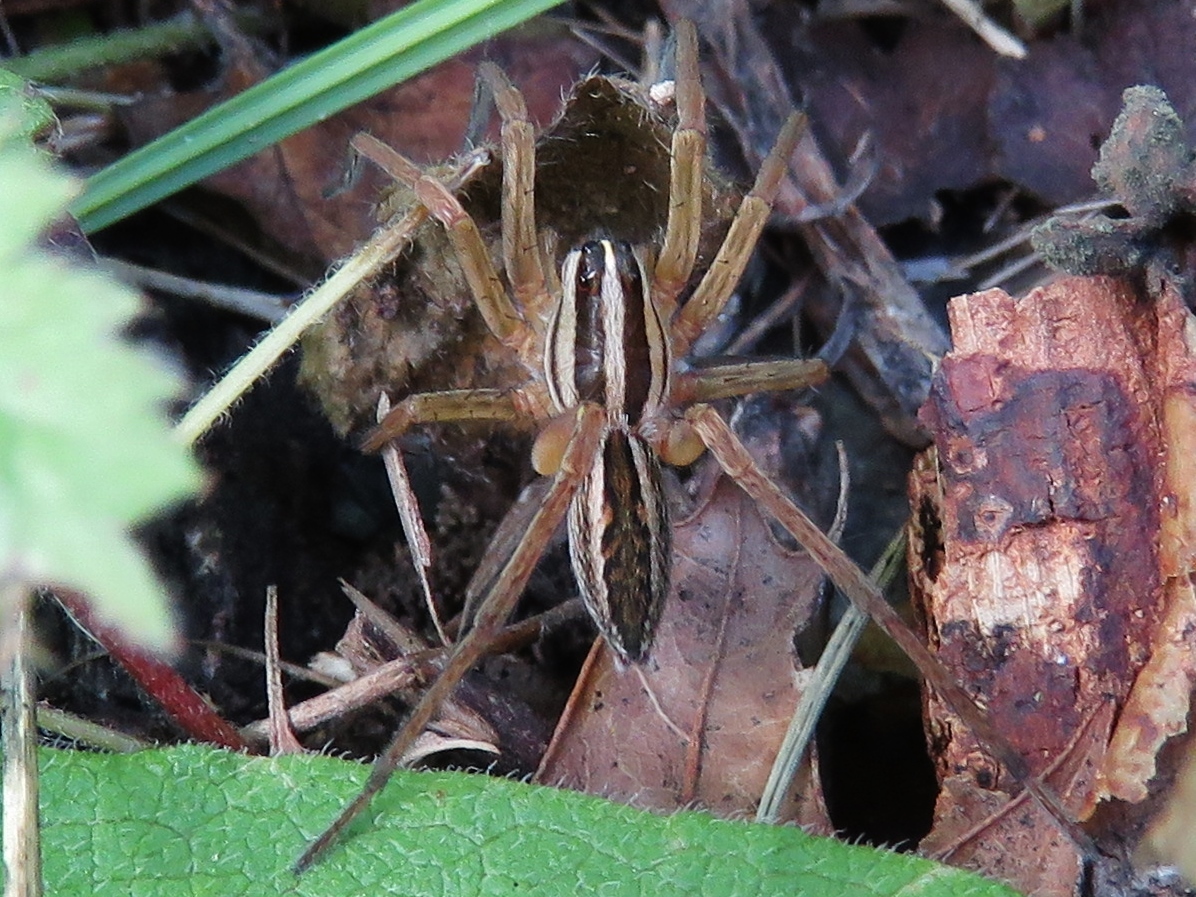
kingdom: Animalia
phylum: Arthropoda
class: Arachnida
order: Araneae
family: Lycosidae
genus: Rabidosa
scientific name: Rabidosa rabida
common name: Rabid wolf spider
